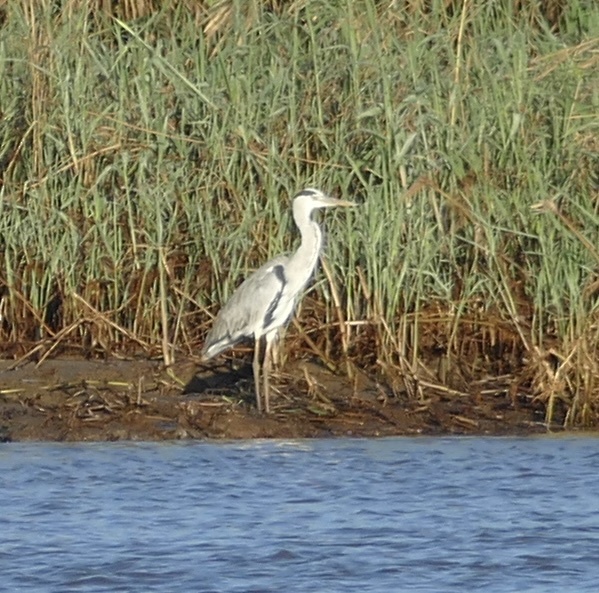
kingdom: Animalia
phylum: Chordata
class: Aves
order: Pelecaniformes
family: Ardeidae
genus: Ardea
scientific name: Ardea cinerea
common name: Grey heron
